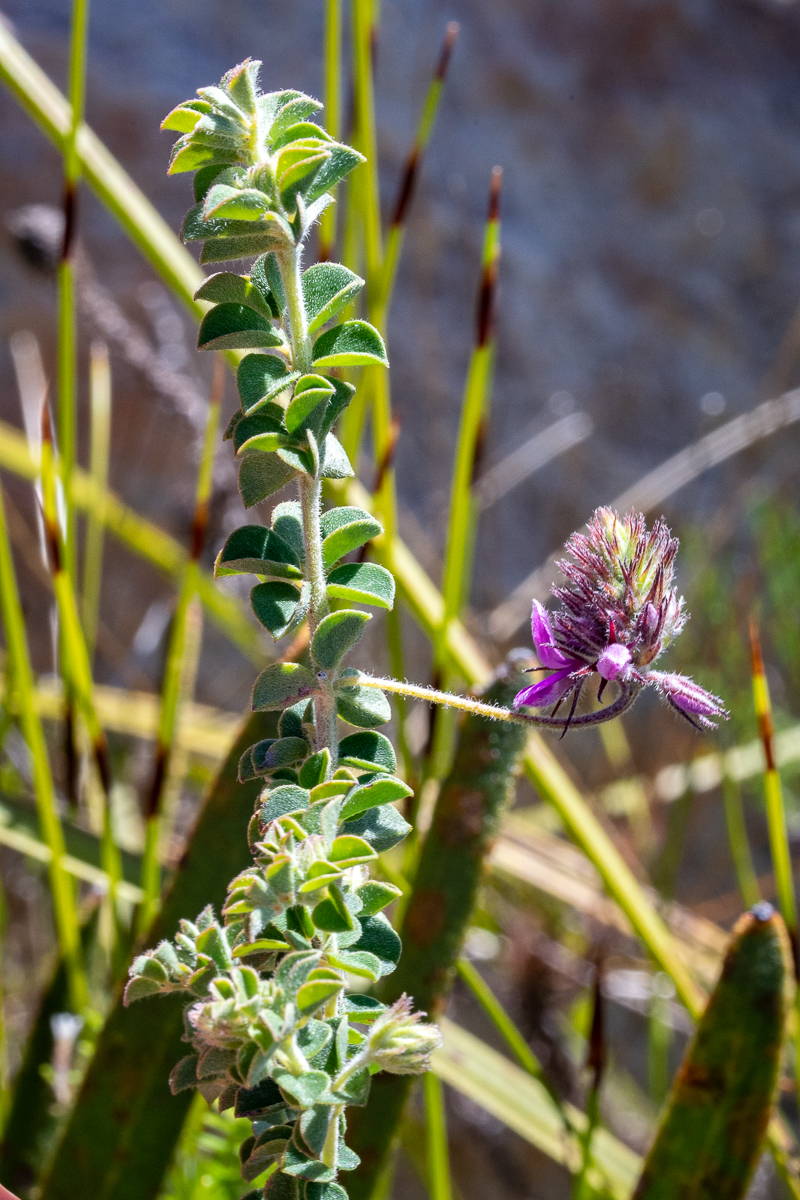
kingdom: Plantae
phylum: Tracheophyta
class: Magnoliopsida
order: Fabales
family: Fabaceae
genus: Indigofera
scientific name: Indigofera alopecuroides
